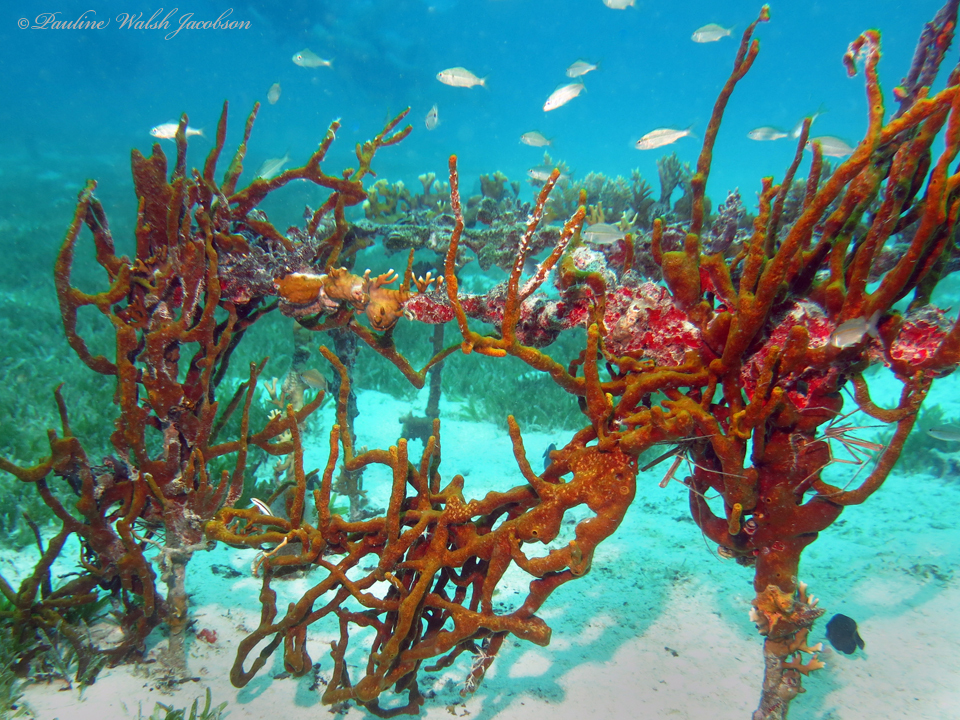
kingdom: Animalia
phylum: Porifera
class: Demospongiae
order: Verongiida
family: Aplysinidae
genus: Aplysina
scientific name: Aplysina fulva
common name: Scattered pore rope sponge
